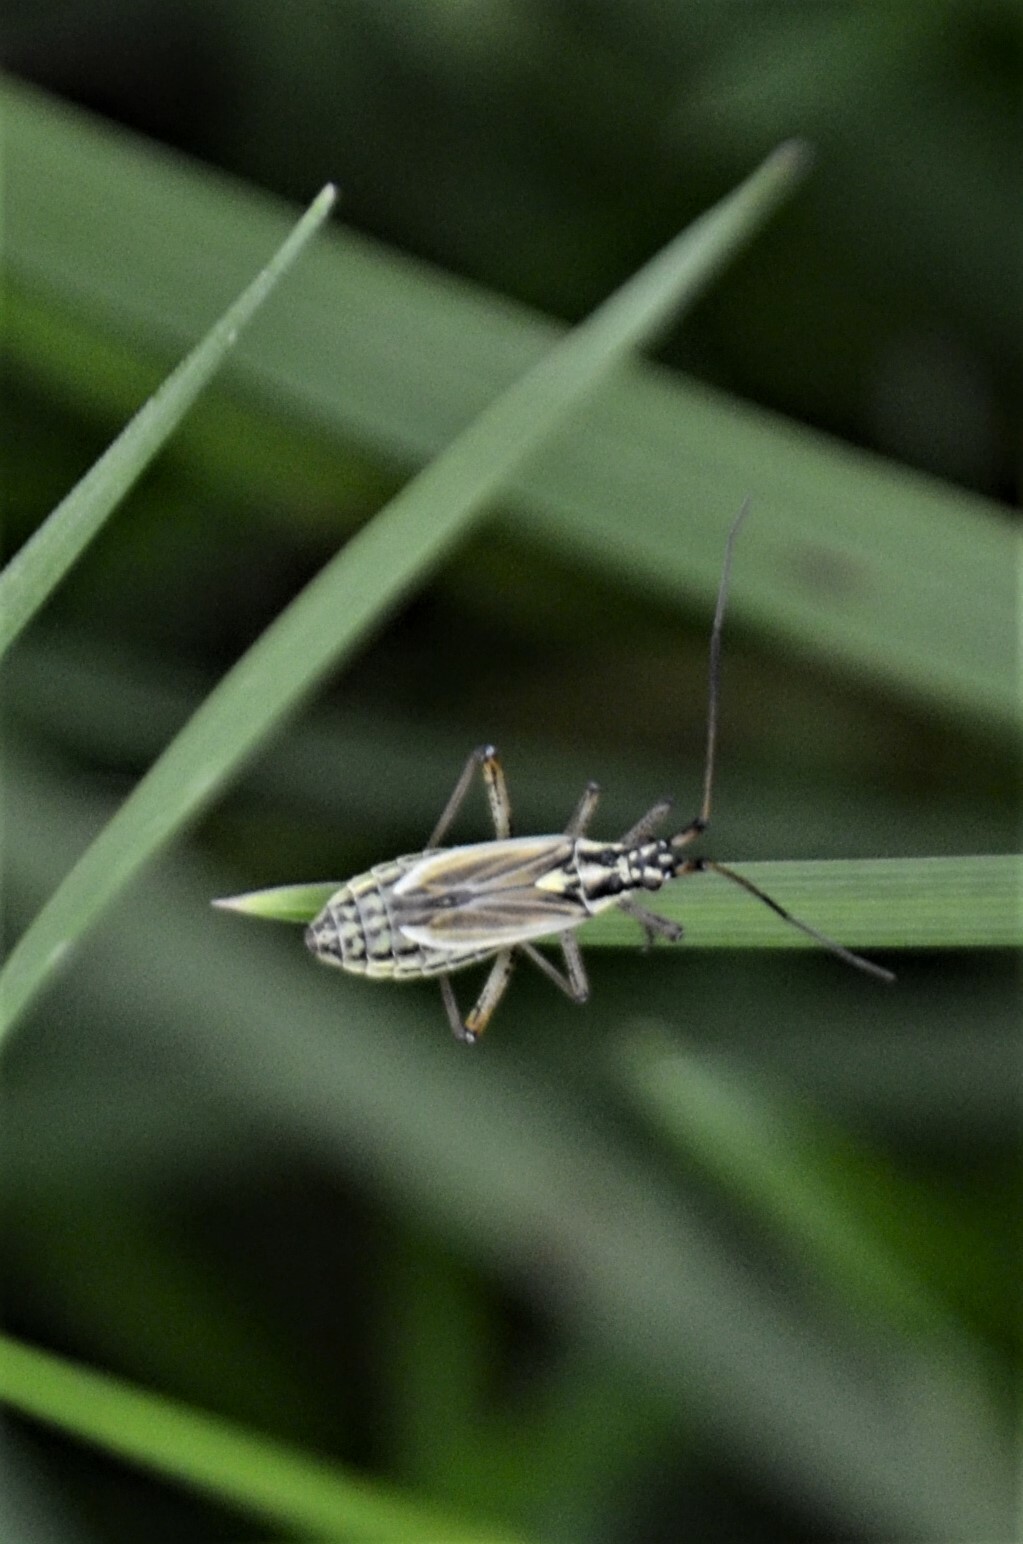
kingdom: Animalia
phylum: Arthropoda
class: Insecta
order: Hemiptera
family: Miridae
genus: Leptopterna
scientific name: Leptopterna dolabrata
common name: Meadow plant bug
